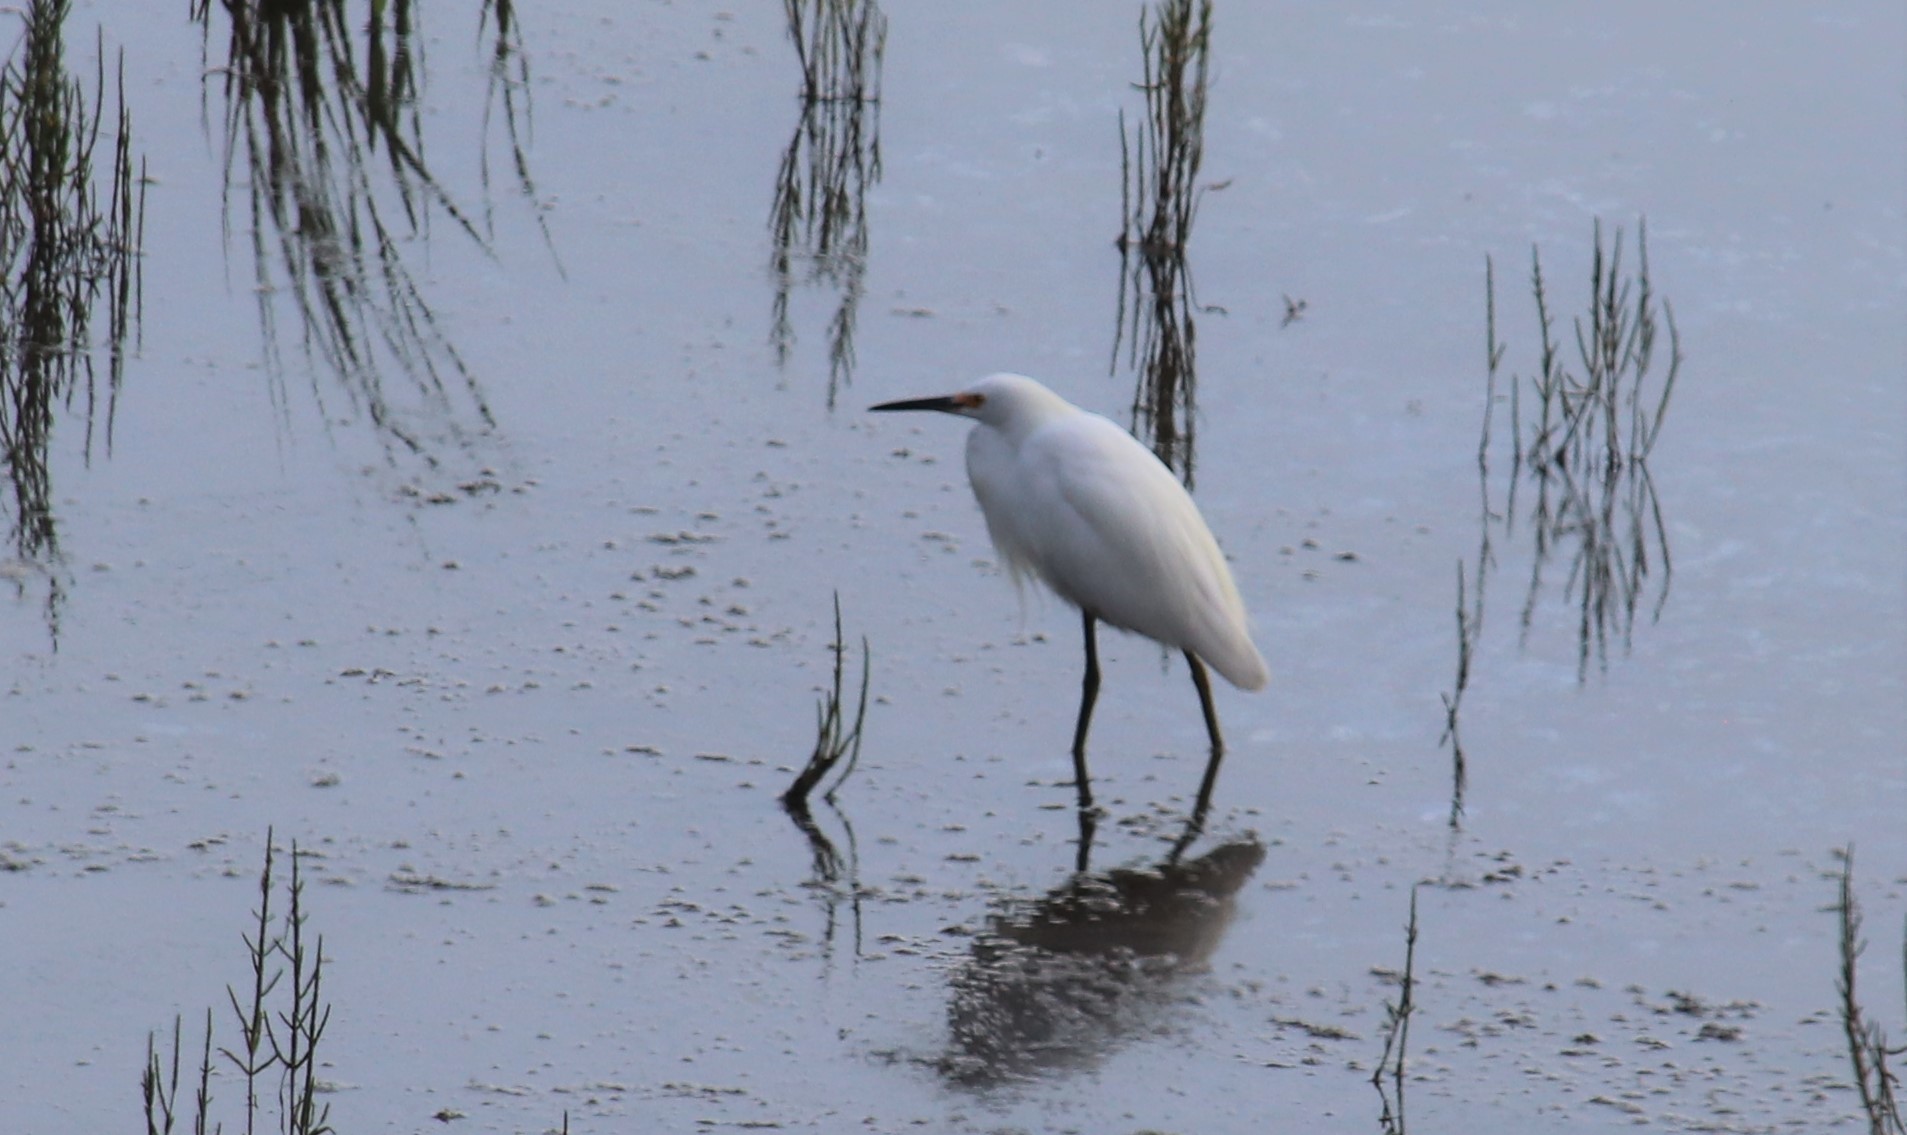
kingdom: Animalia
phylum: Chordata
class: Aves
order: Pelecaniformes
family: Ardeidae
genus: Egretta
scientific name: Egretta thula
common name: Snowy egret
